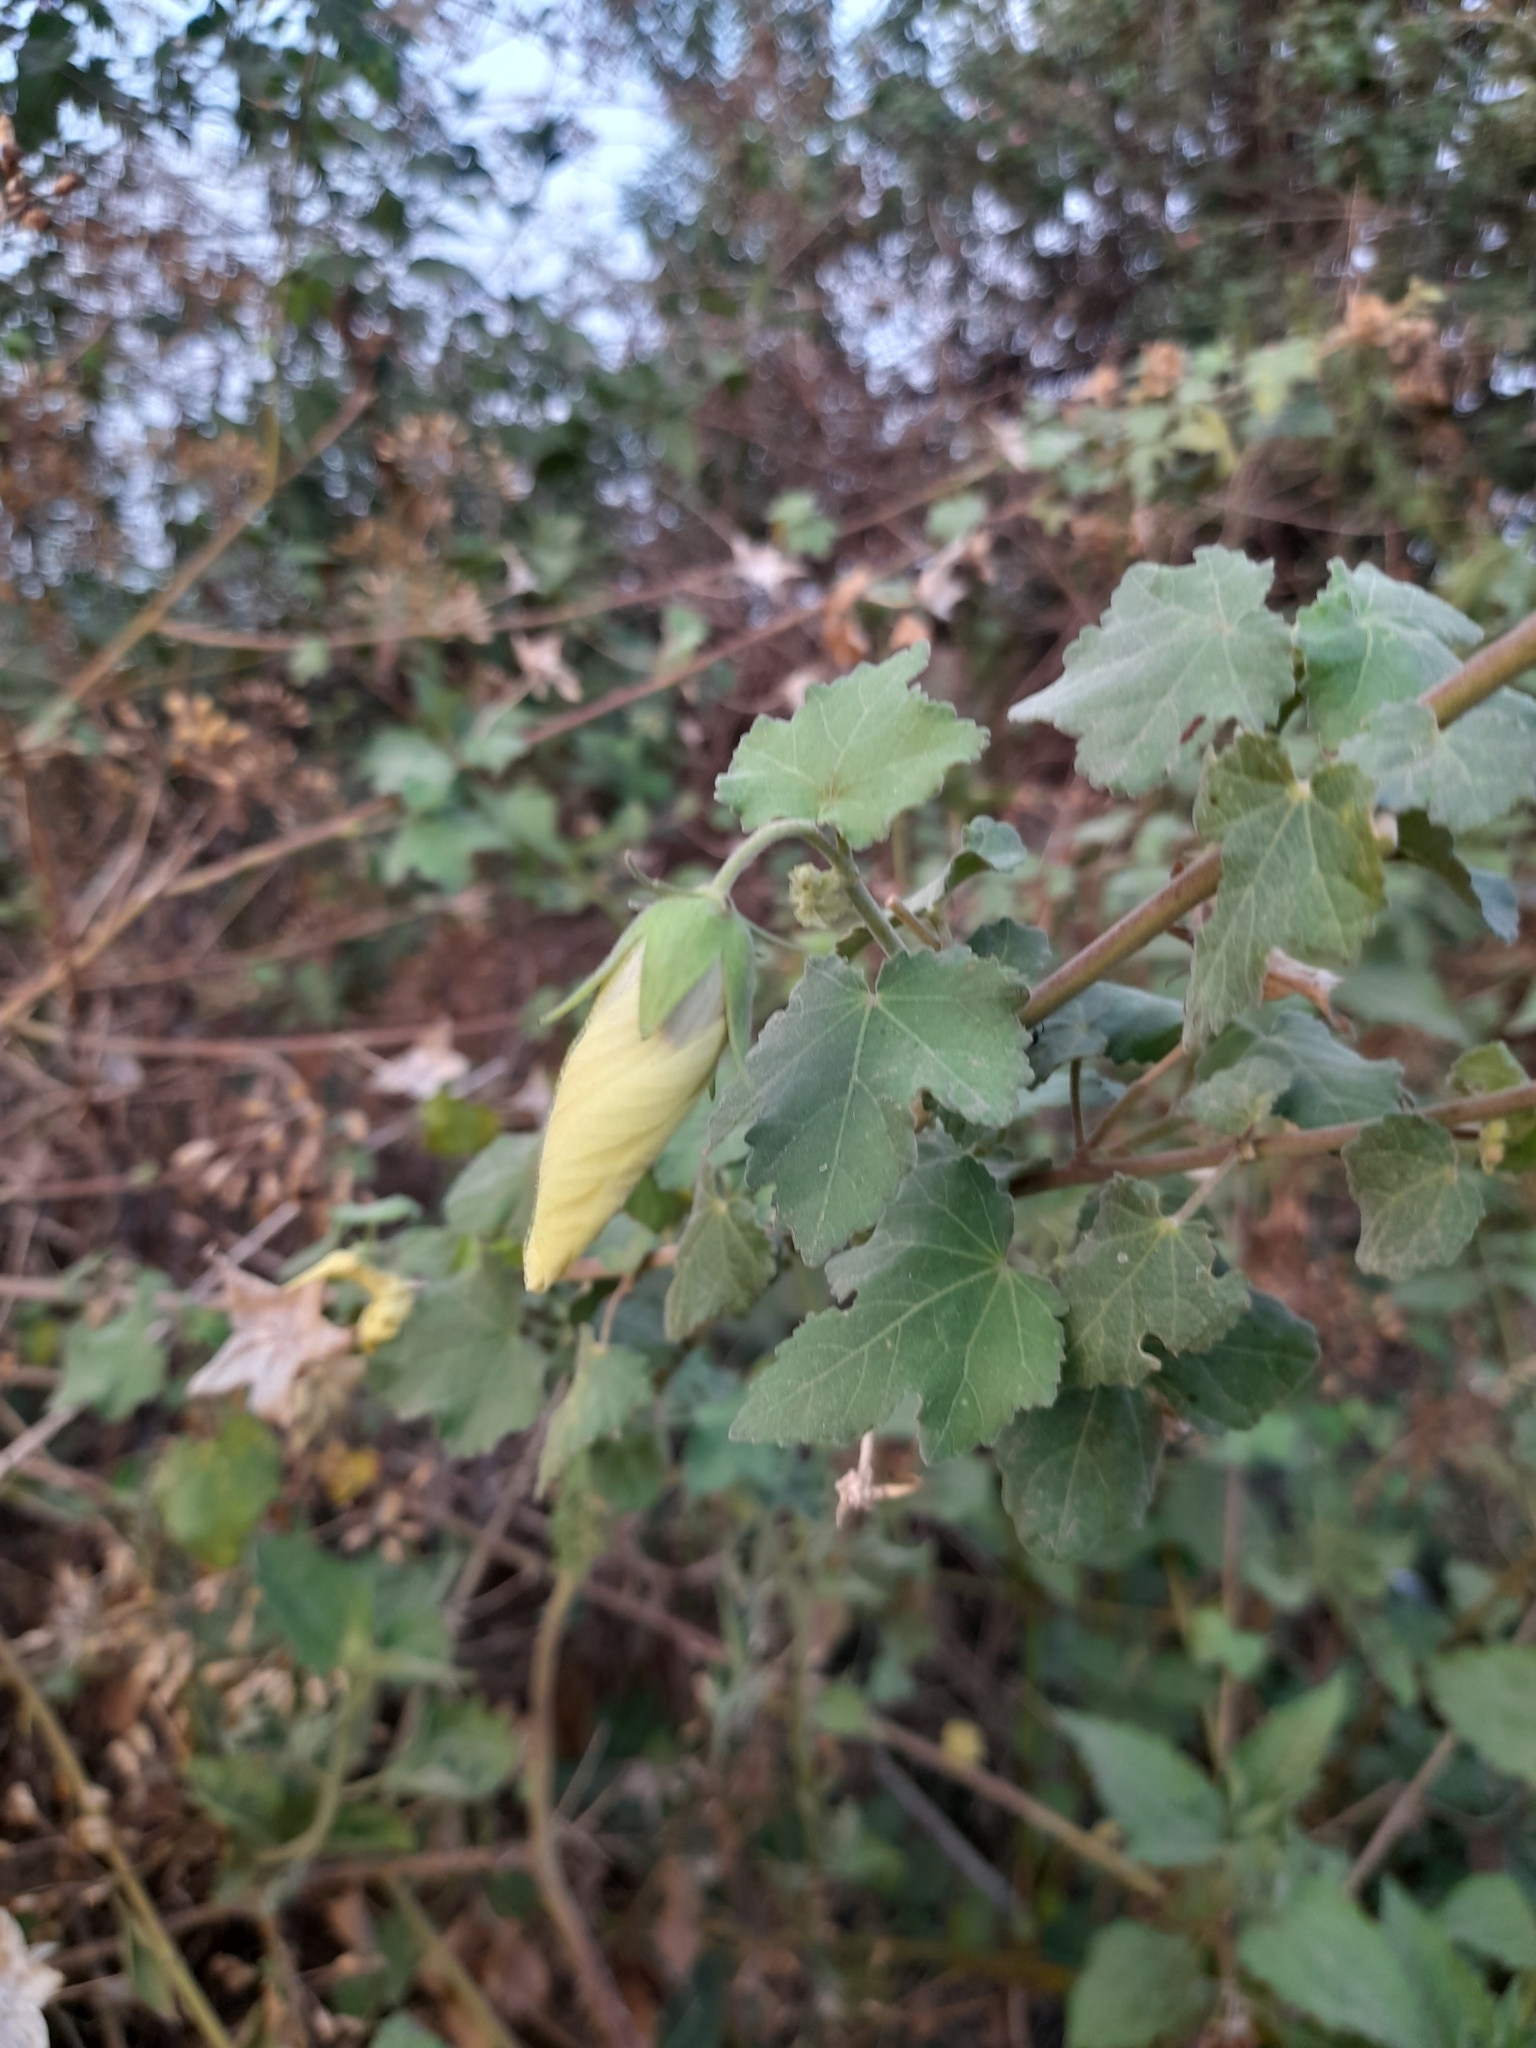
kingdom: Plantae
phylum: Tracheophyta
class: Magnoliopsida
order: Malvales
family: Malvaceae
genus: Hibiscus
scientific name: Hibiscus vitifolius
